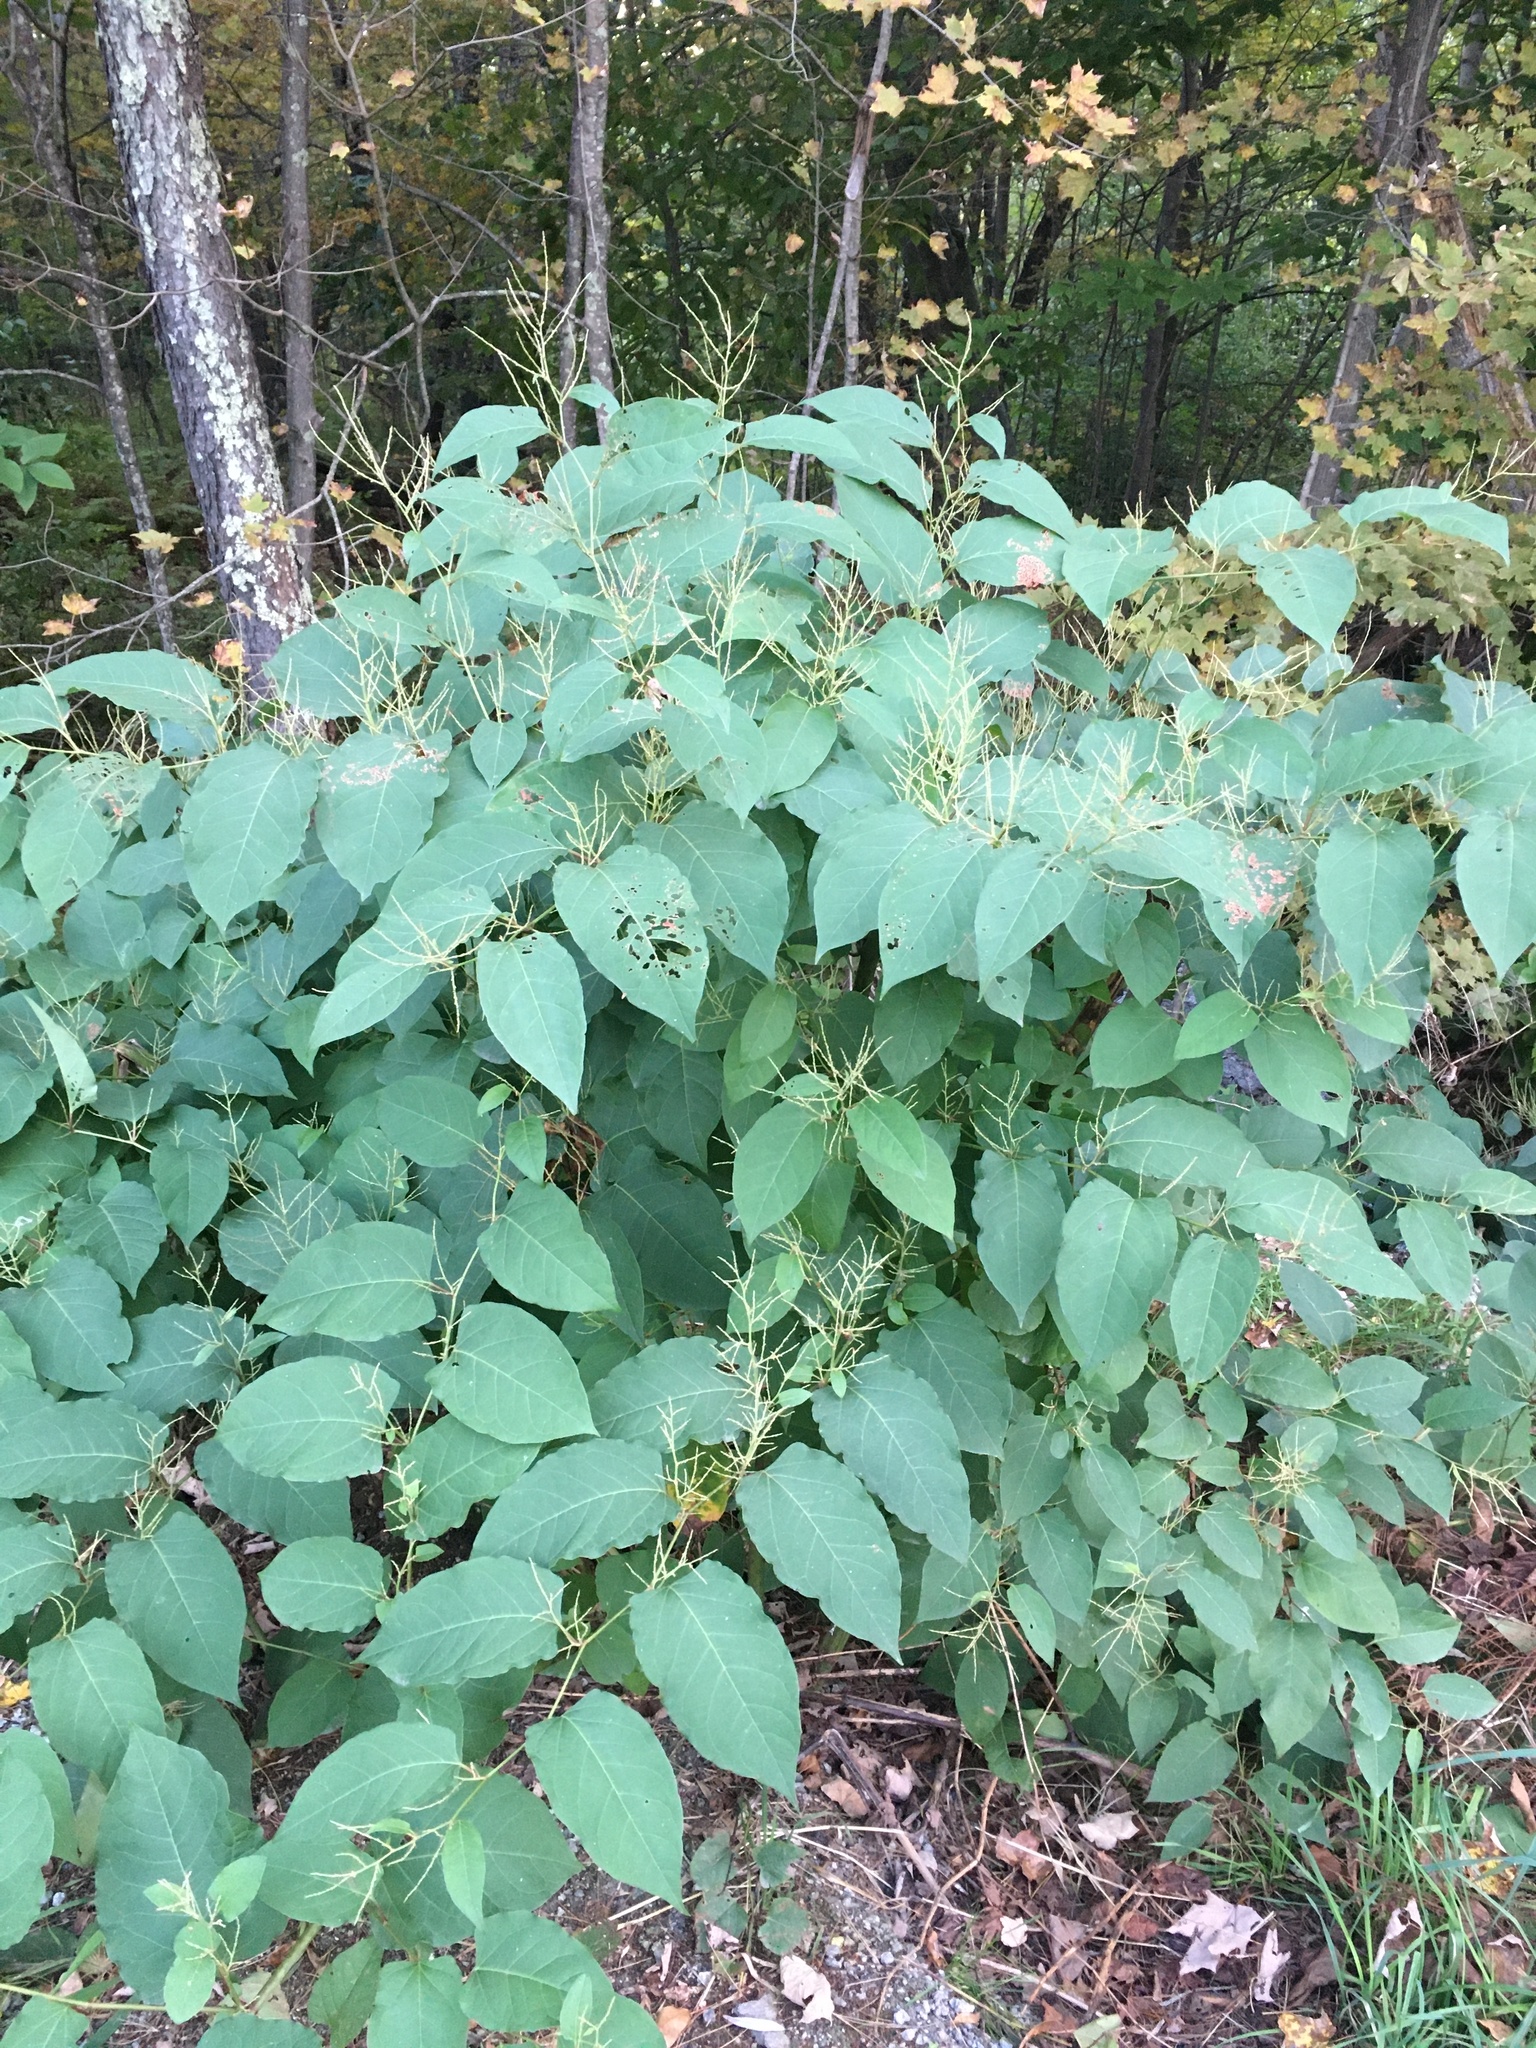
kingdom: Plantae
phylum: Tracheophyta
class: Magnoliopsida
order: Caryophyllales
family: Polygonaceae
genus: Reynoutria
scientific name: Reynoutria japonica
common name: Japanese knotweed
